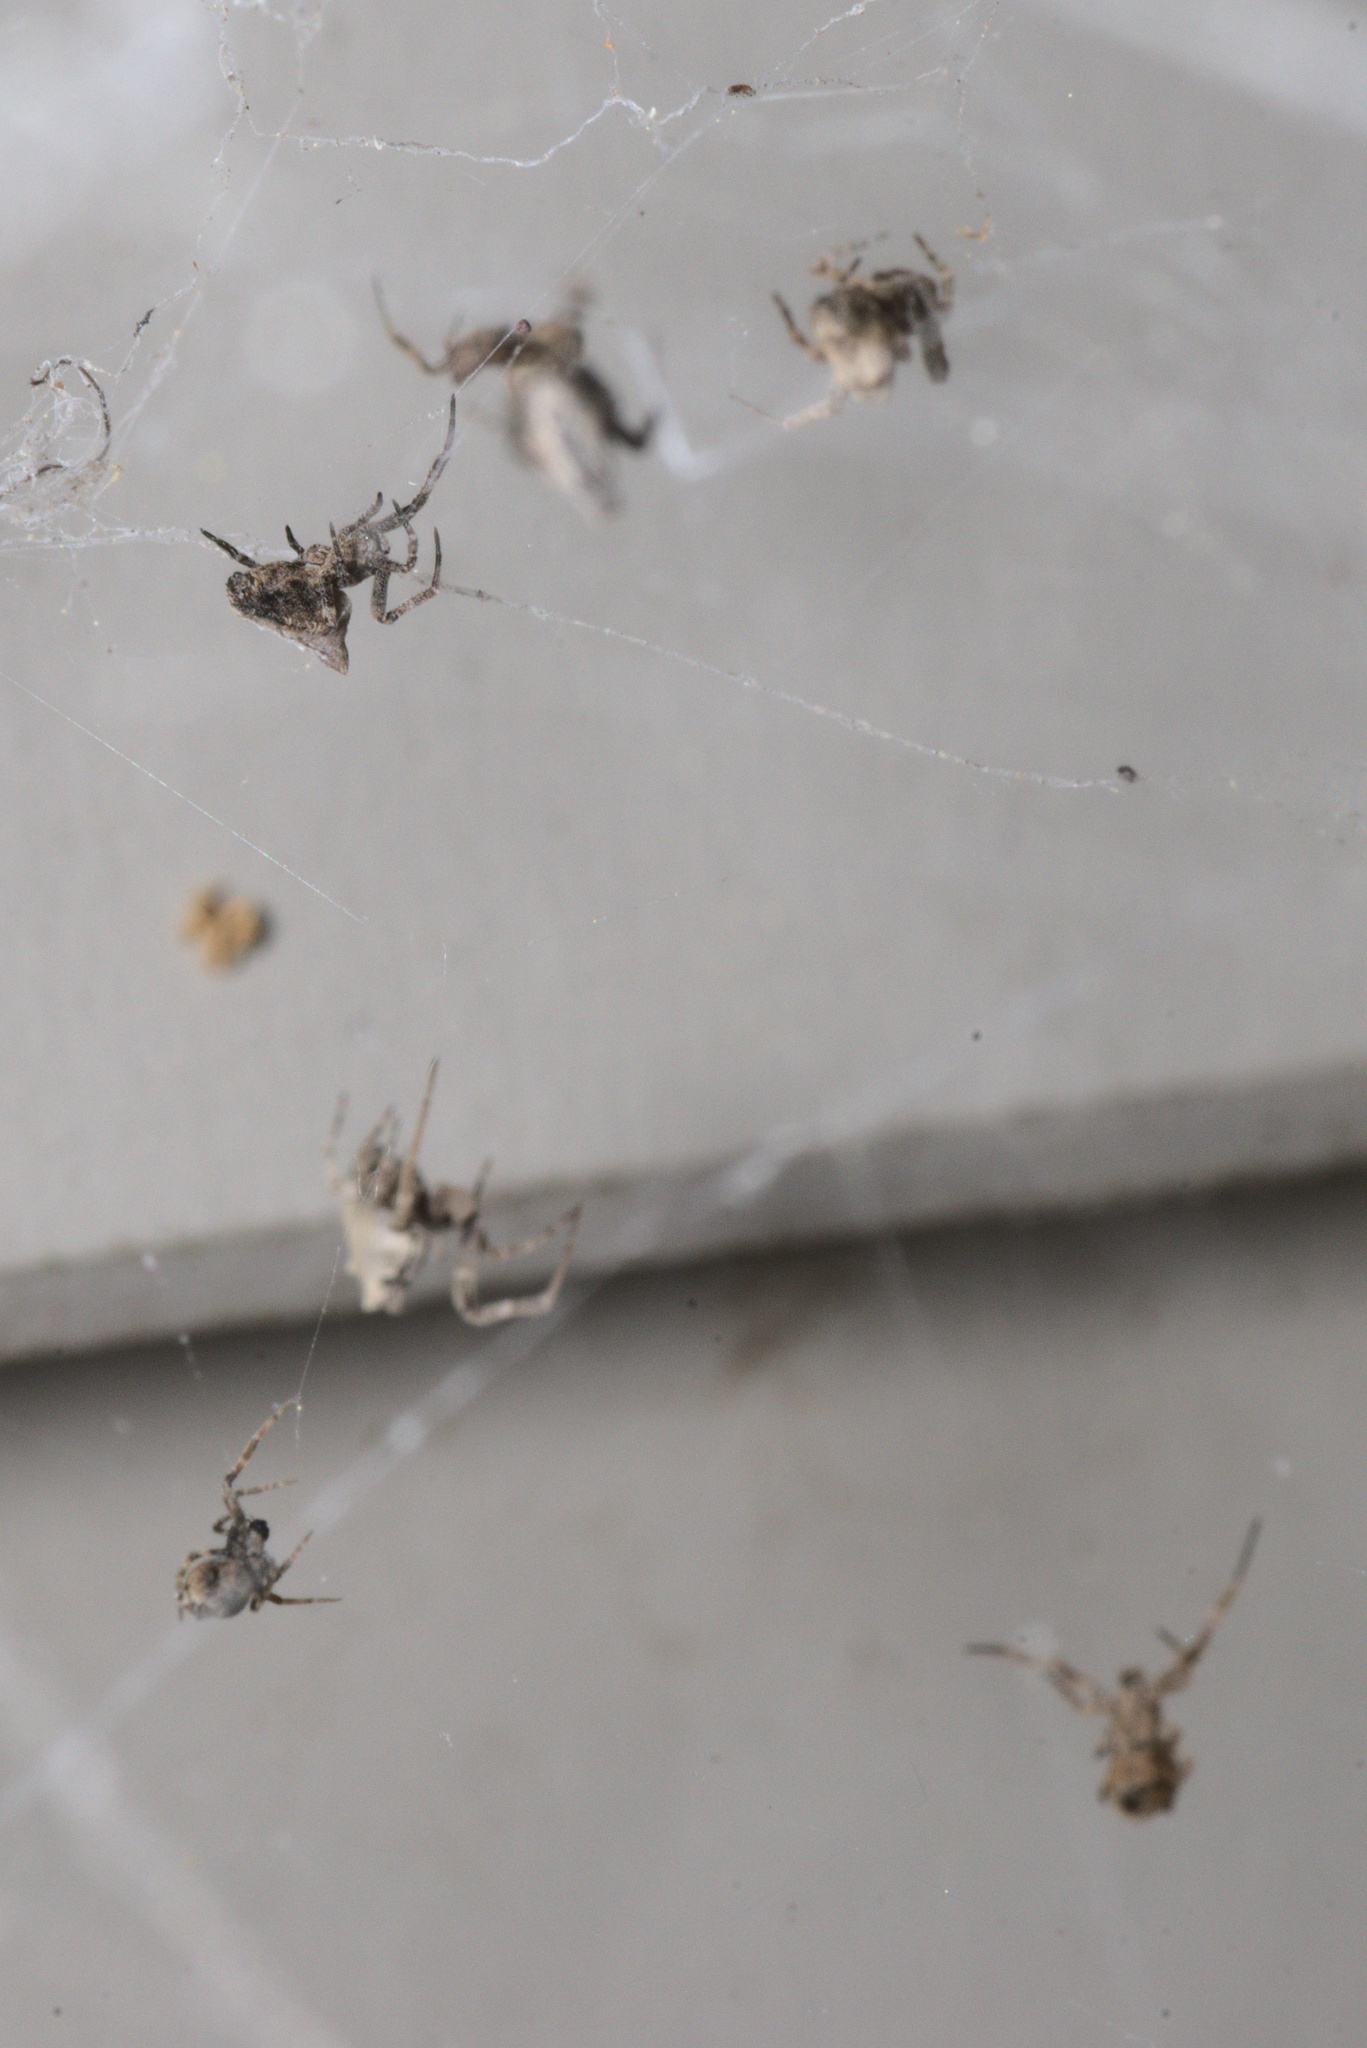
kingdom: Animalia
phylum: Arthropoda
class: Arachnida
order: Araneae
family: Uloboridae
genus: Philoponella
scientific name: Philoponella congregabilis
